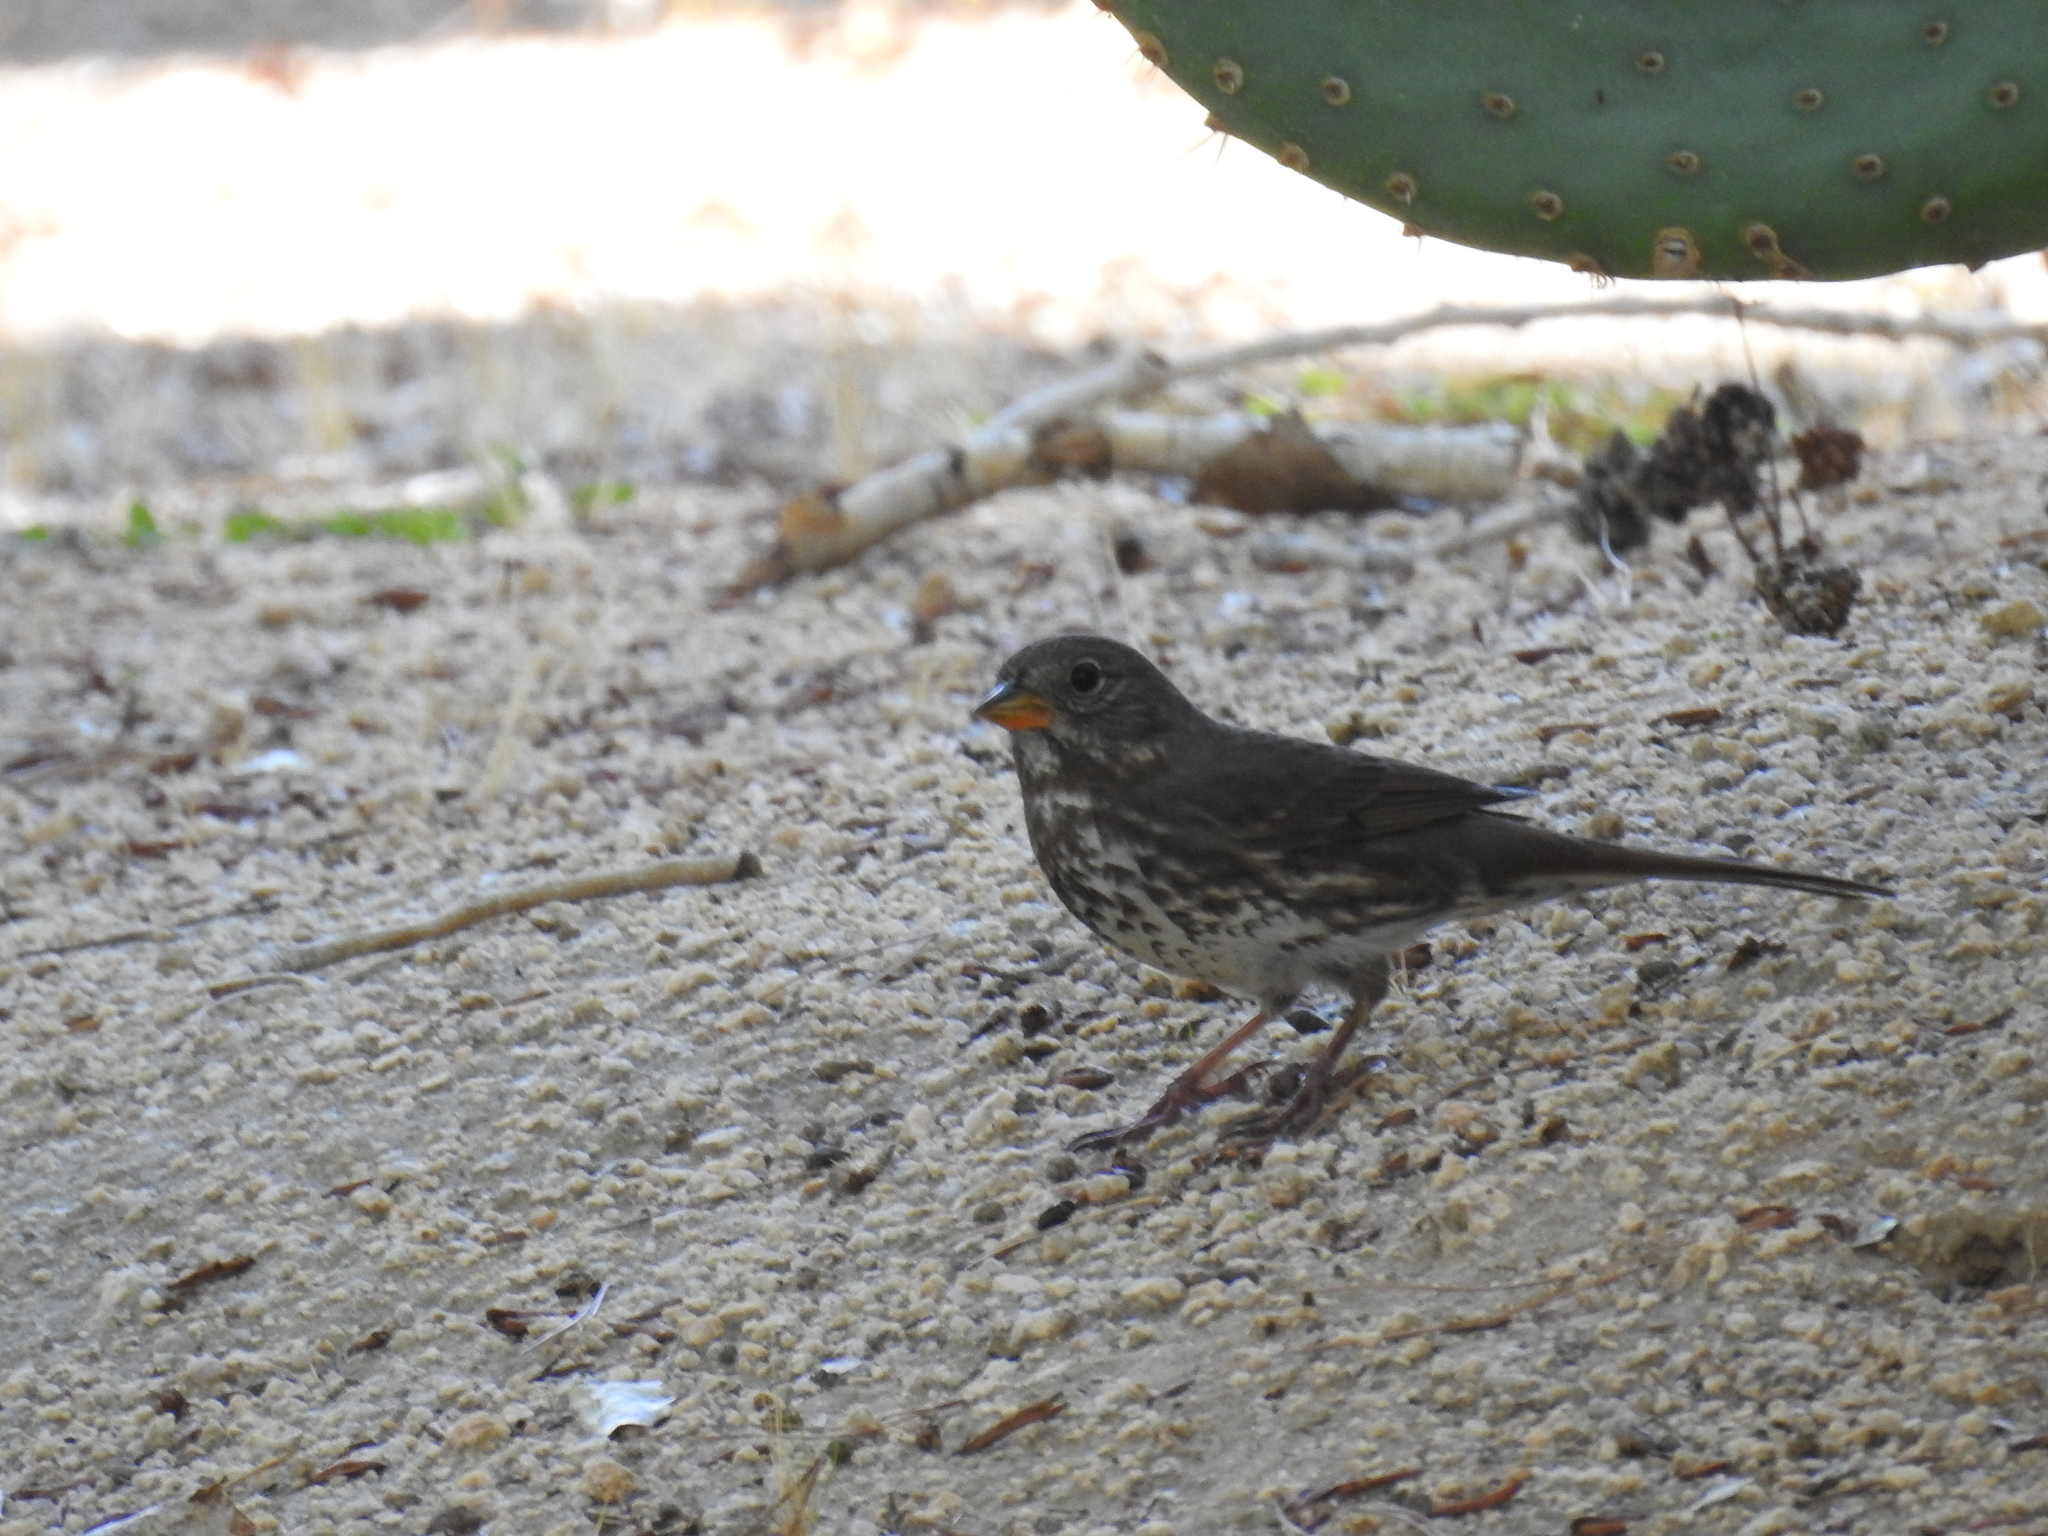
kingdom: Animalia
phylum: Chordata
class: Aves
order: Passeriformes
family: Passerellidae
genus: Passerella
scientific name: Passerella iliaca
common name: Fox sparrow
